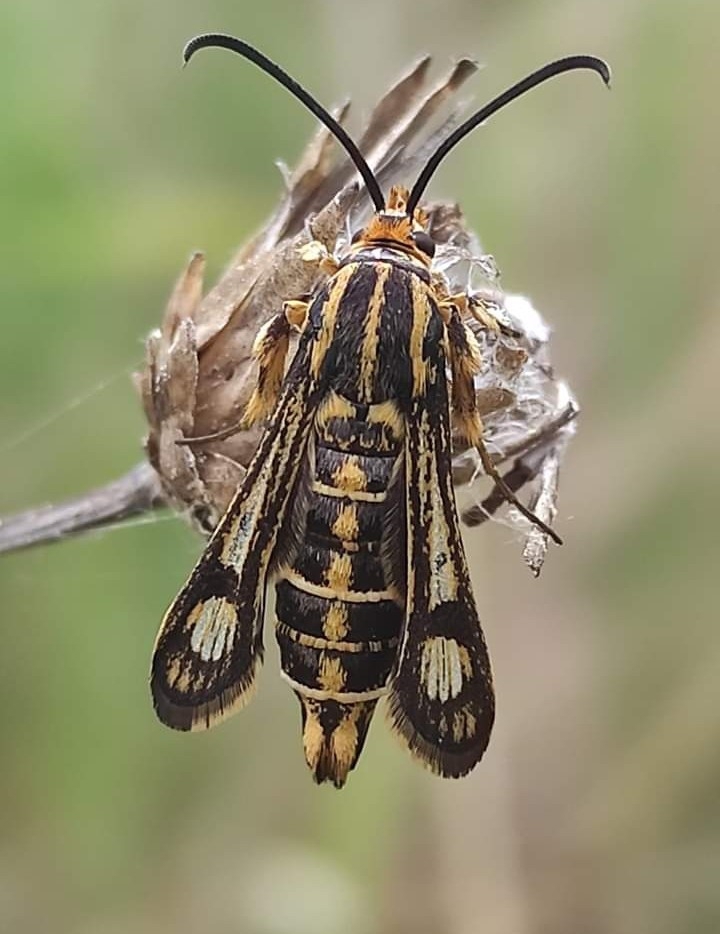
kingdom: Animalia
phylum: Arthropoda
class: Insecta
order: Lepidoptera
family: Sesiidae
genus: Chamaesphecia
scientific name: Chamaesphecia bibioniformis
